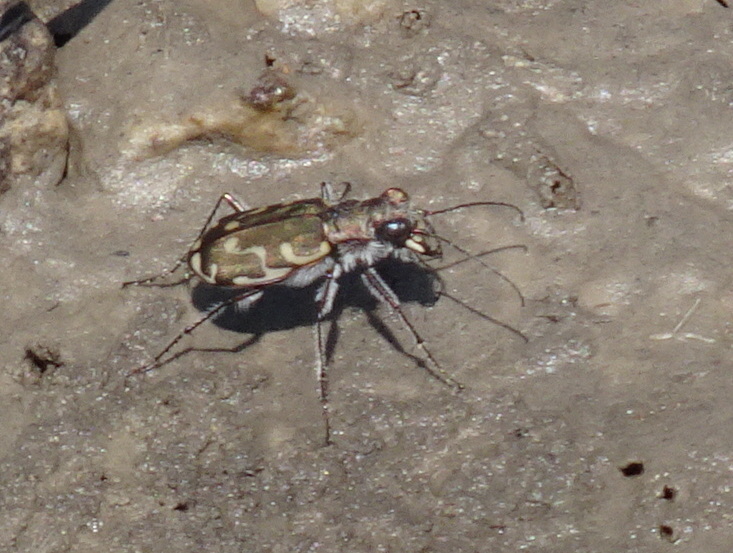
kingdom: Animalia
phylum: Arthropoda
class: Insecta
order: Coleoptera
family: Carabidae
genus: Cicindela
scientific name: Cicindela repanda
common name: Bronzed tiger beetle
